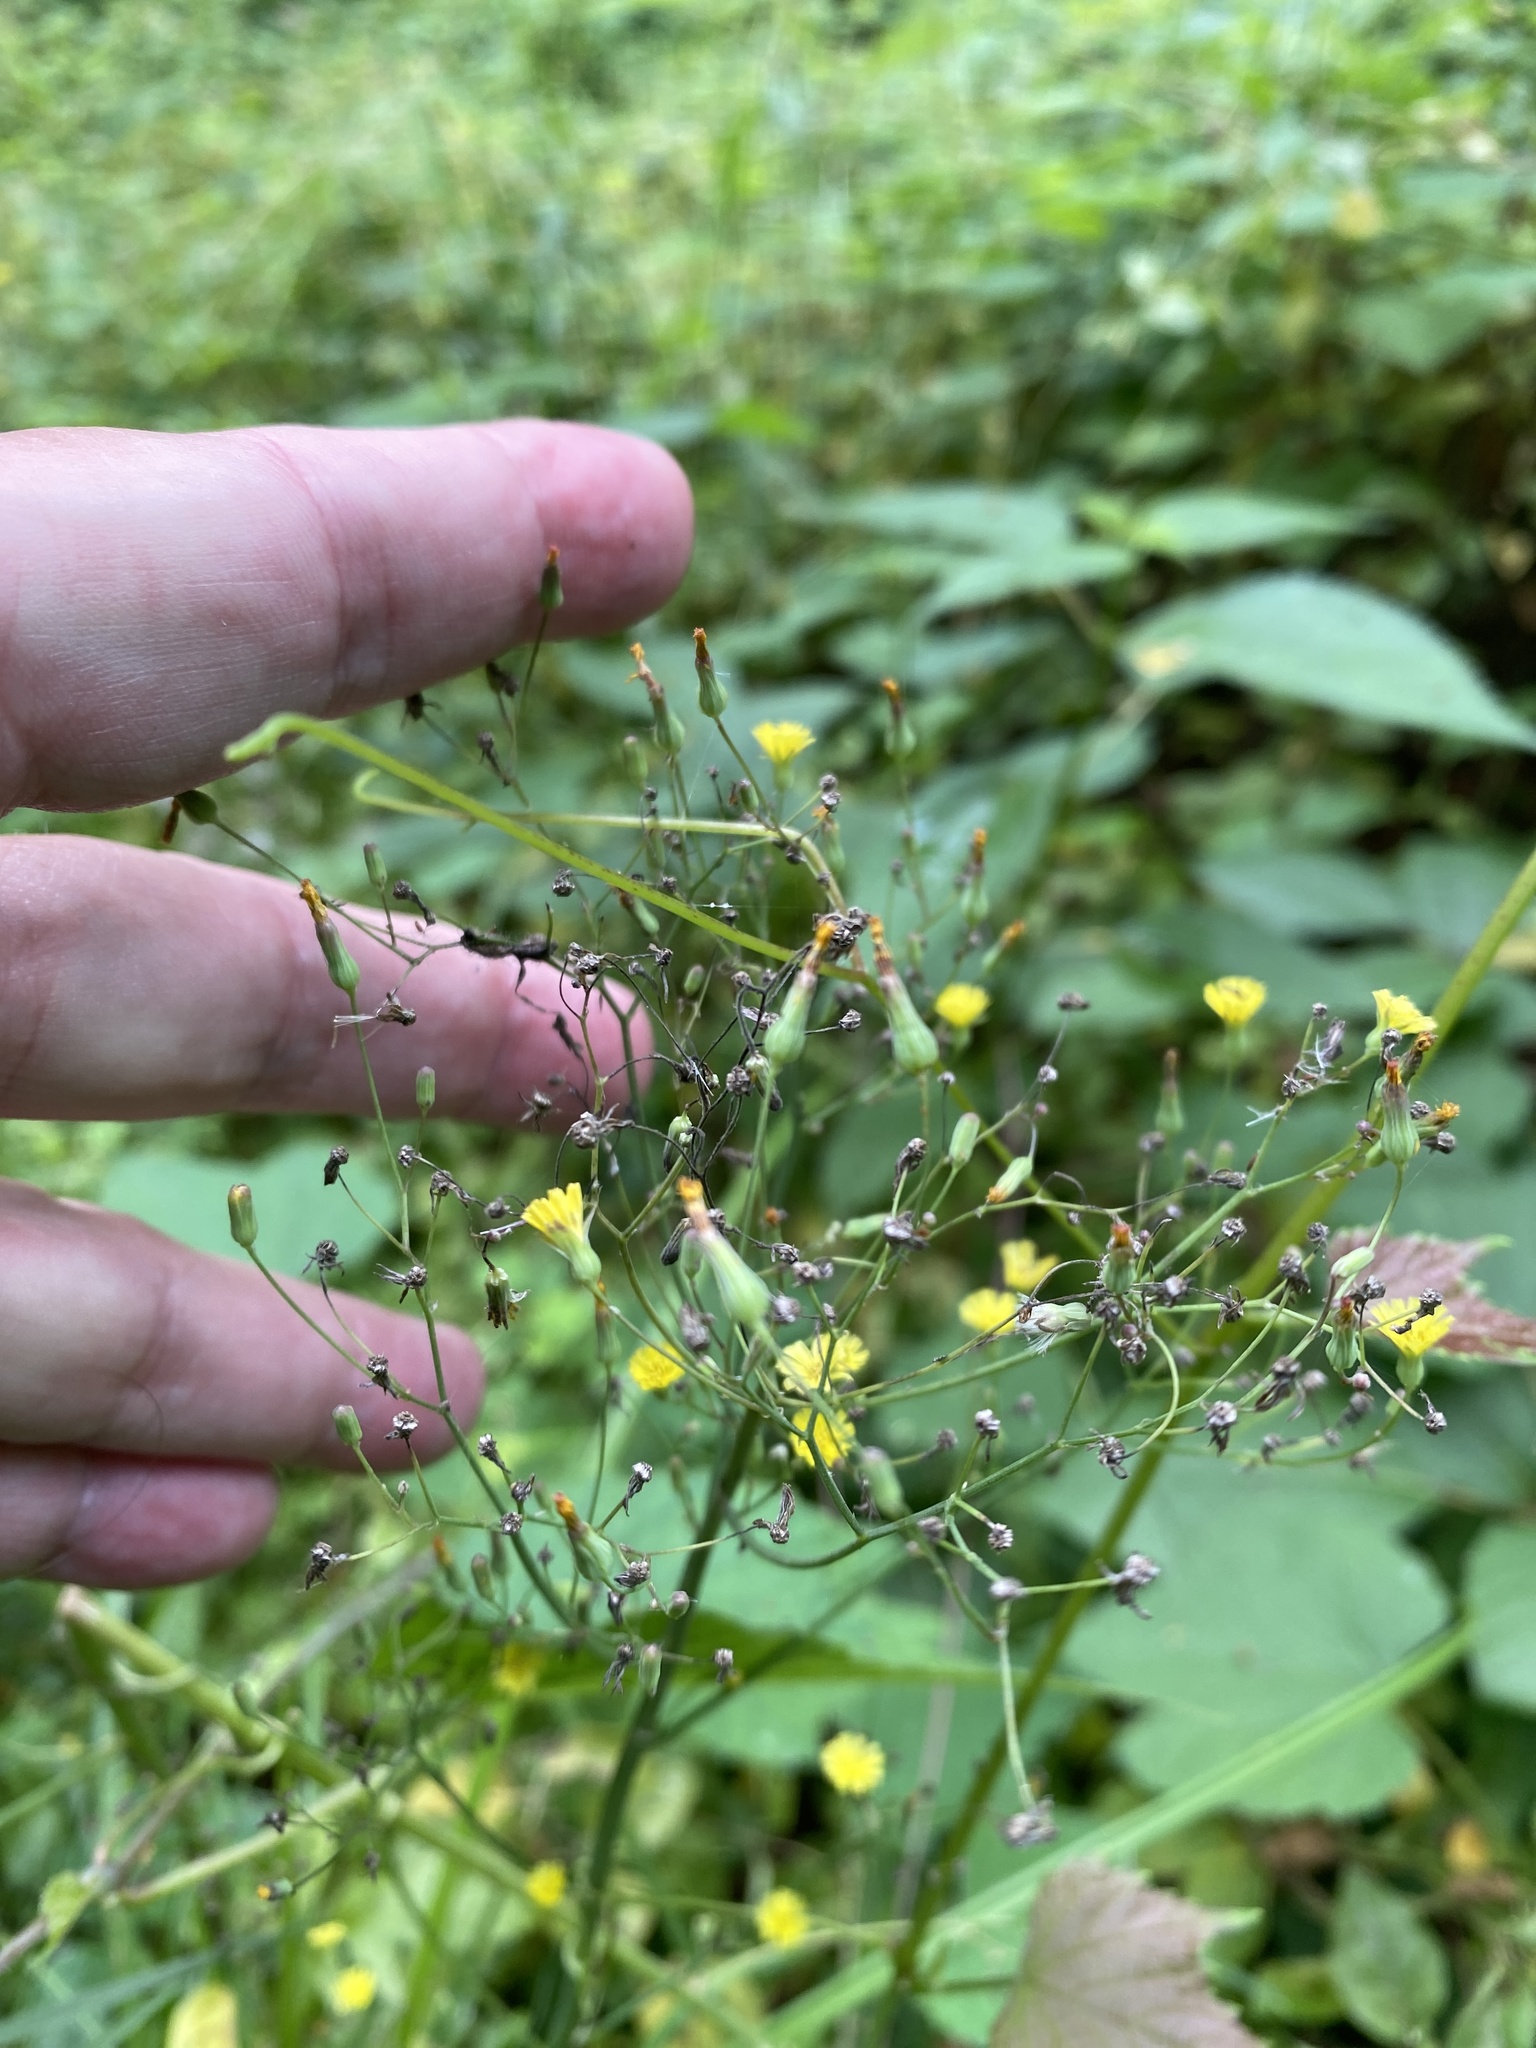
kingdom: Plantae
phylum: Tracheophyta
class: Magnoliopsida
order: Asterales
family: Asteraceae
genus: Youngia
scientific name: Youngia japonica
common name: Oriental false hawksbeard
